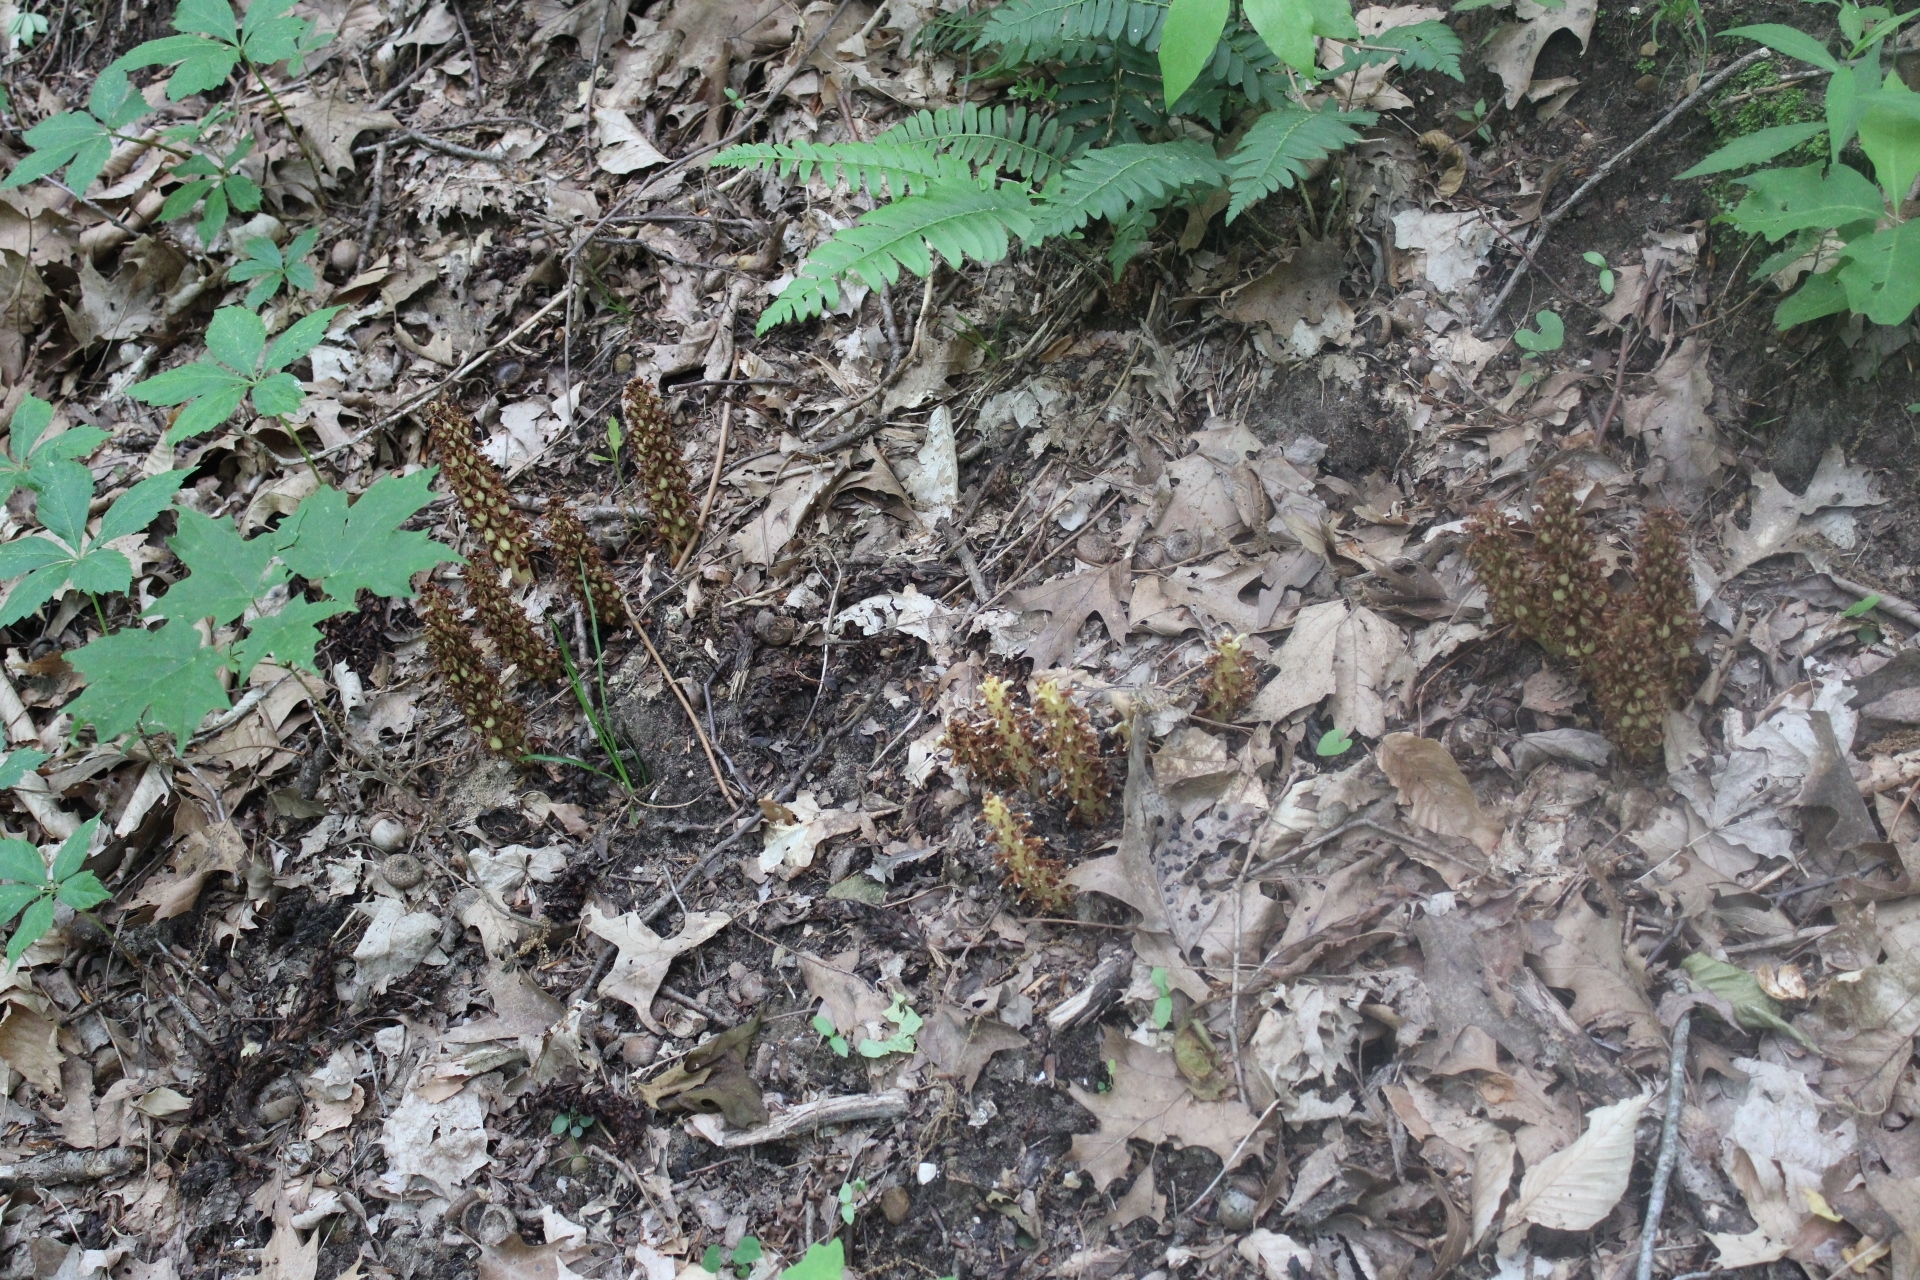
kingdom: Plantae
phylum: Tracheophyta
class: Magnoliopsida
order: Lamiales
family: Orobanchaceae
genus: Conopholis
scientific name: Conopholis americana
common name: American cancer-root
